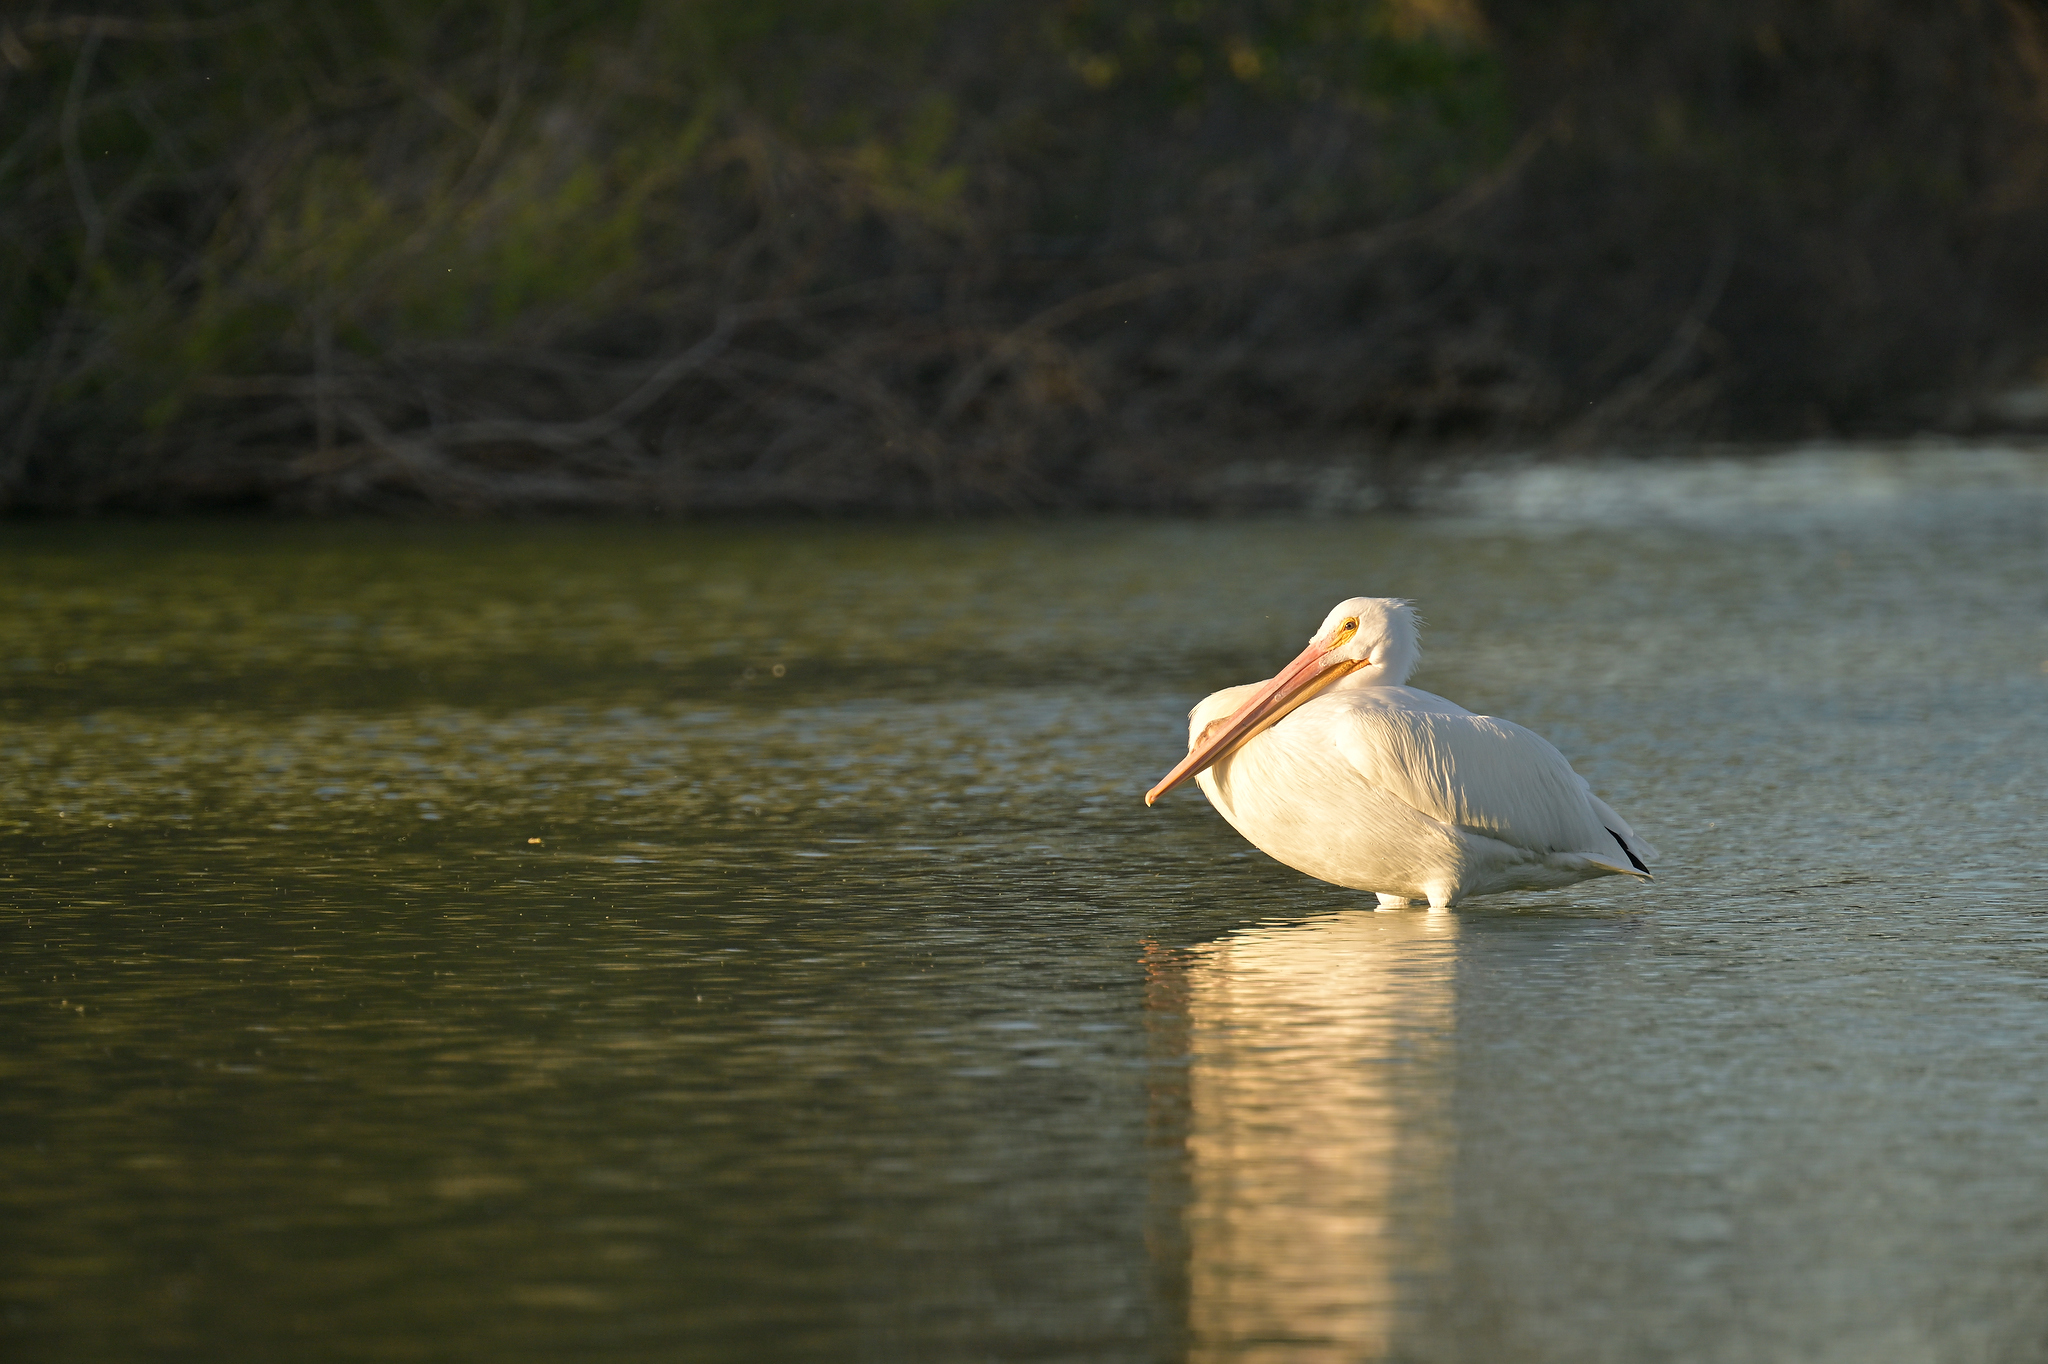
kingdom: Animalia
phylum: Chordata
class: Aves
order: Pelecaniformes
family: Pelecanidae
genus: Pelecanus
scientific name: Pelecanus erythrorhynchos
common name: American white pelican
